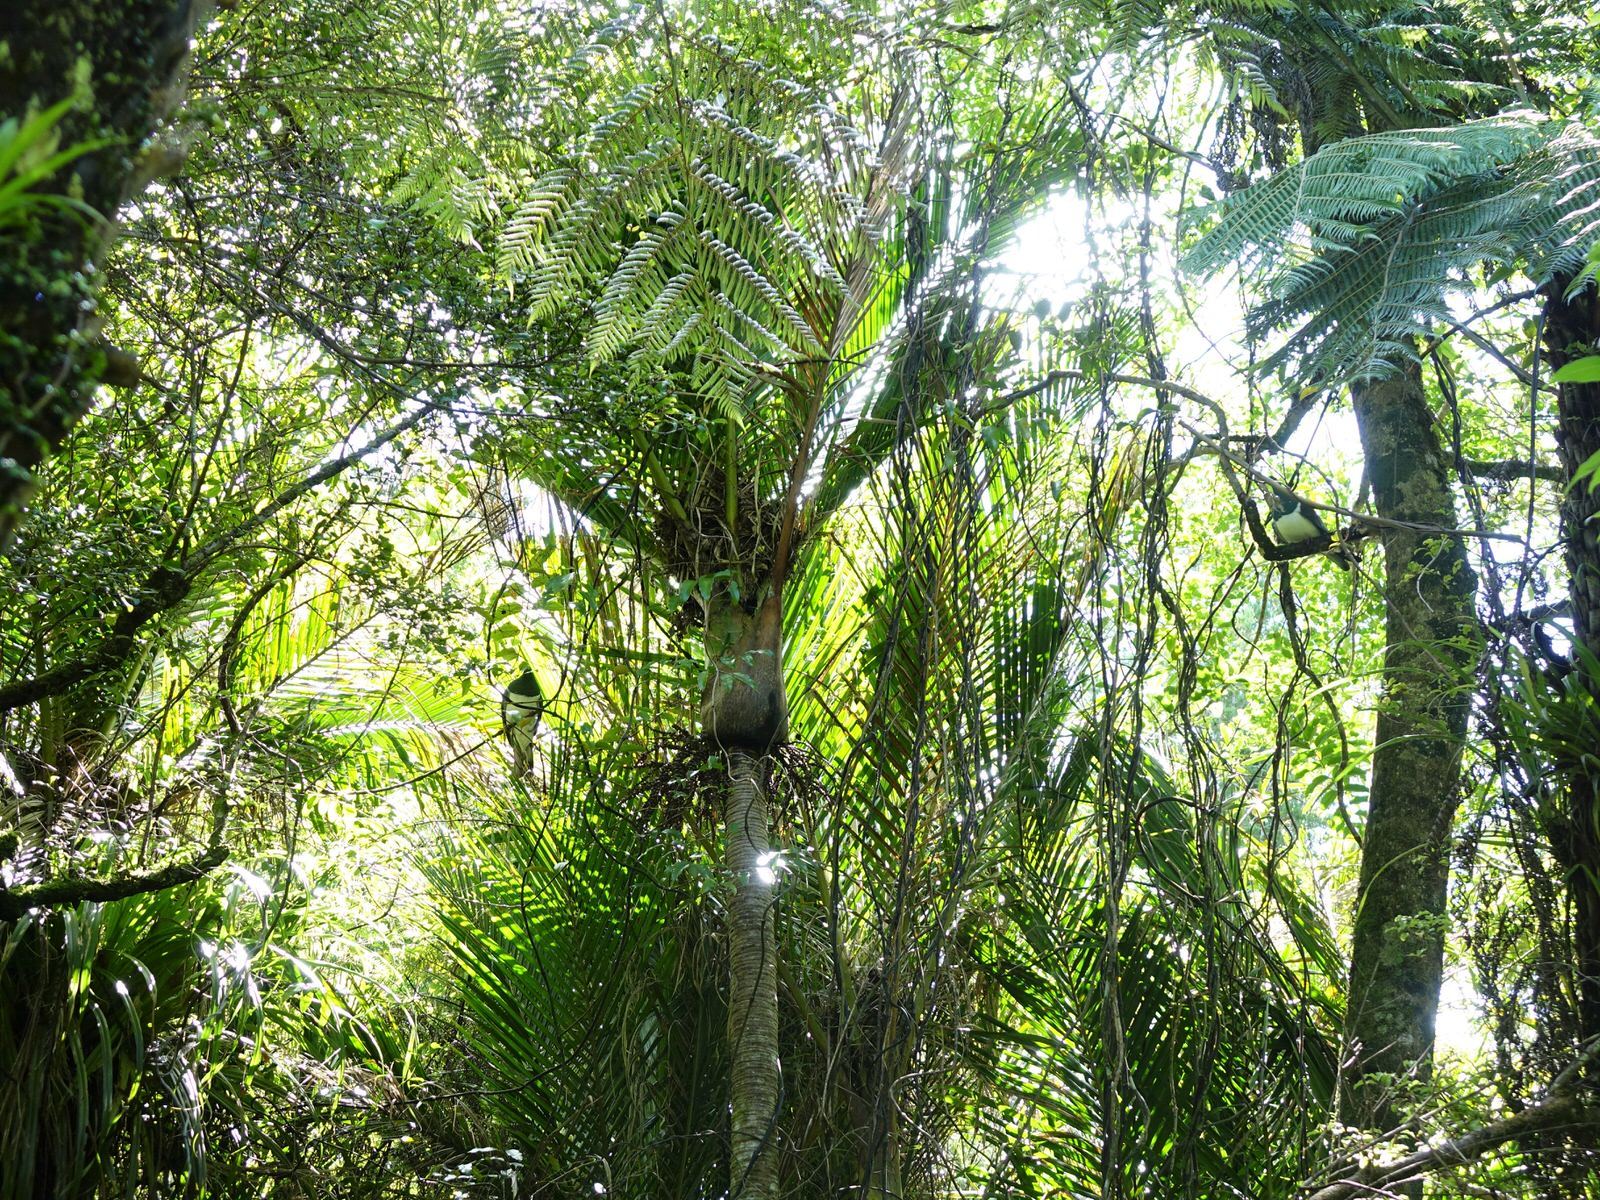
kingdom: Animalia
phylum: Chordata
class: Aves
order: Columbiformes
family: Columbidae
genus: Hemiphaga
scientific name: Hemiphaga novaeseelandiae
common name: New zealand pigeon
